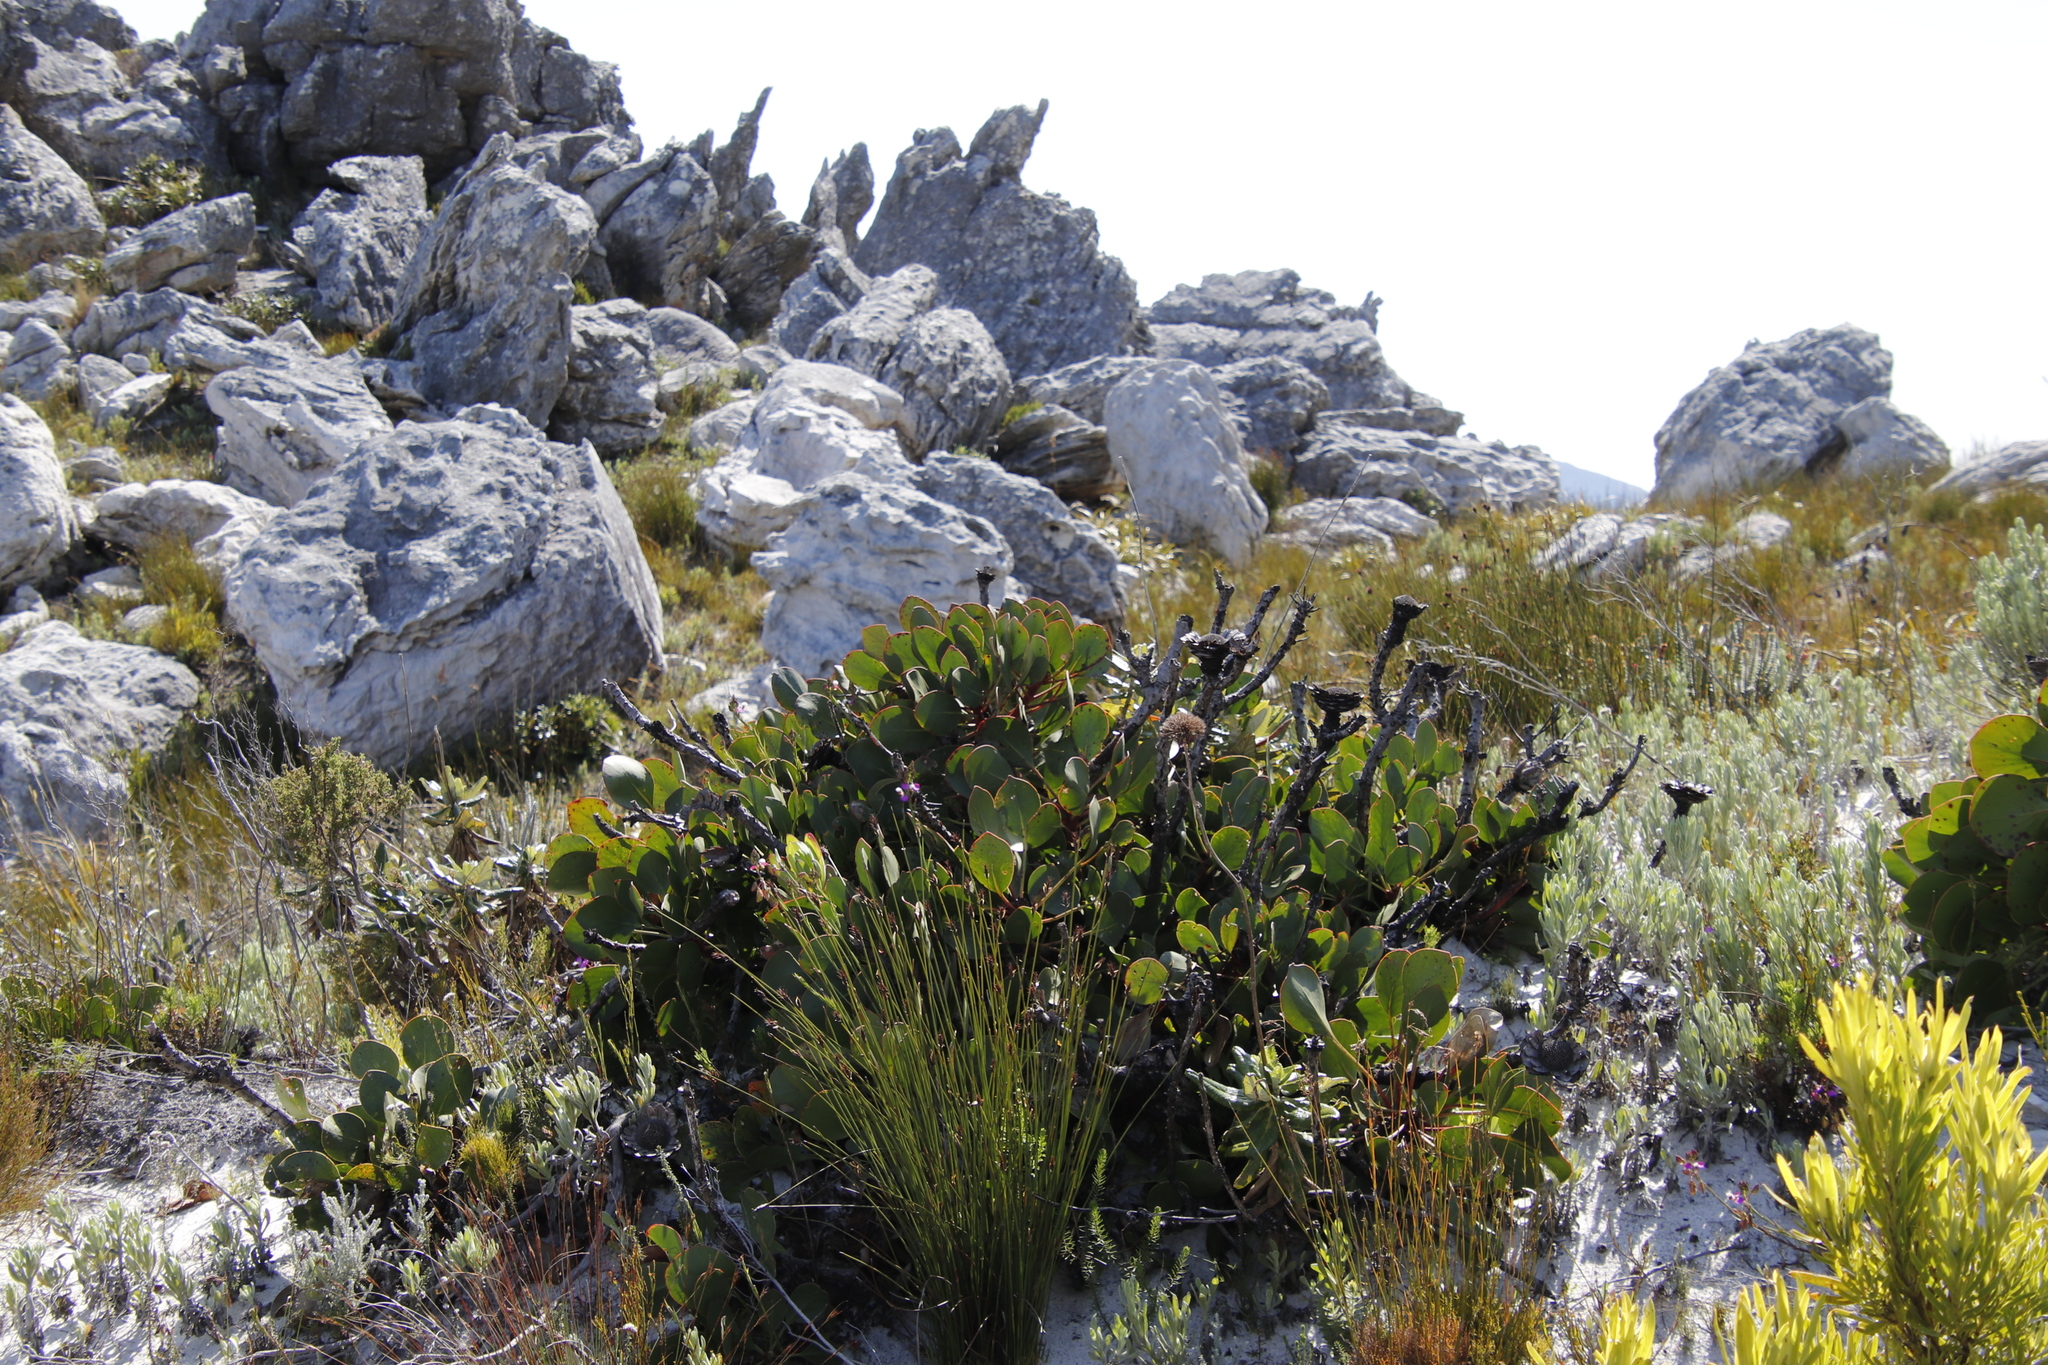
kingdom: Plantae
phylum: Tracheophyta
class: Magnoliopsida
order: Proteales
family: Proteaceae
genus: Protea
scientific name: Protea cynaroides
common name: King protea
